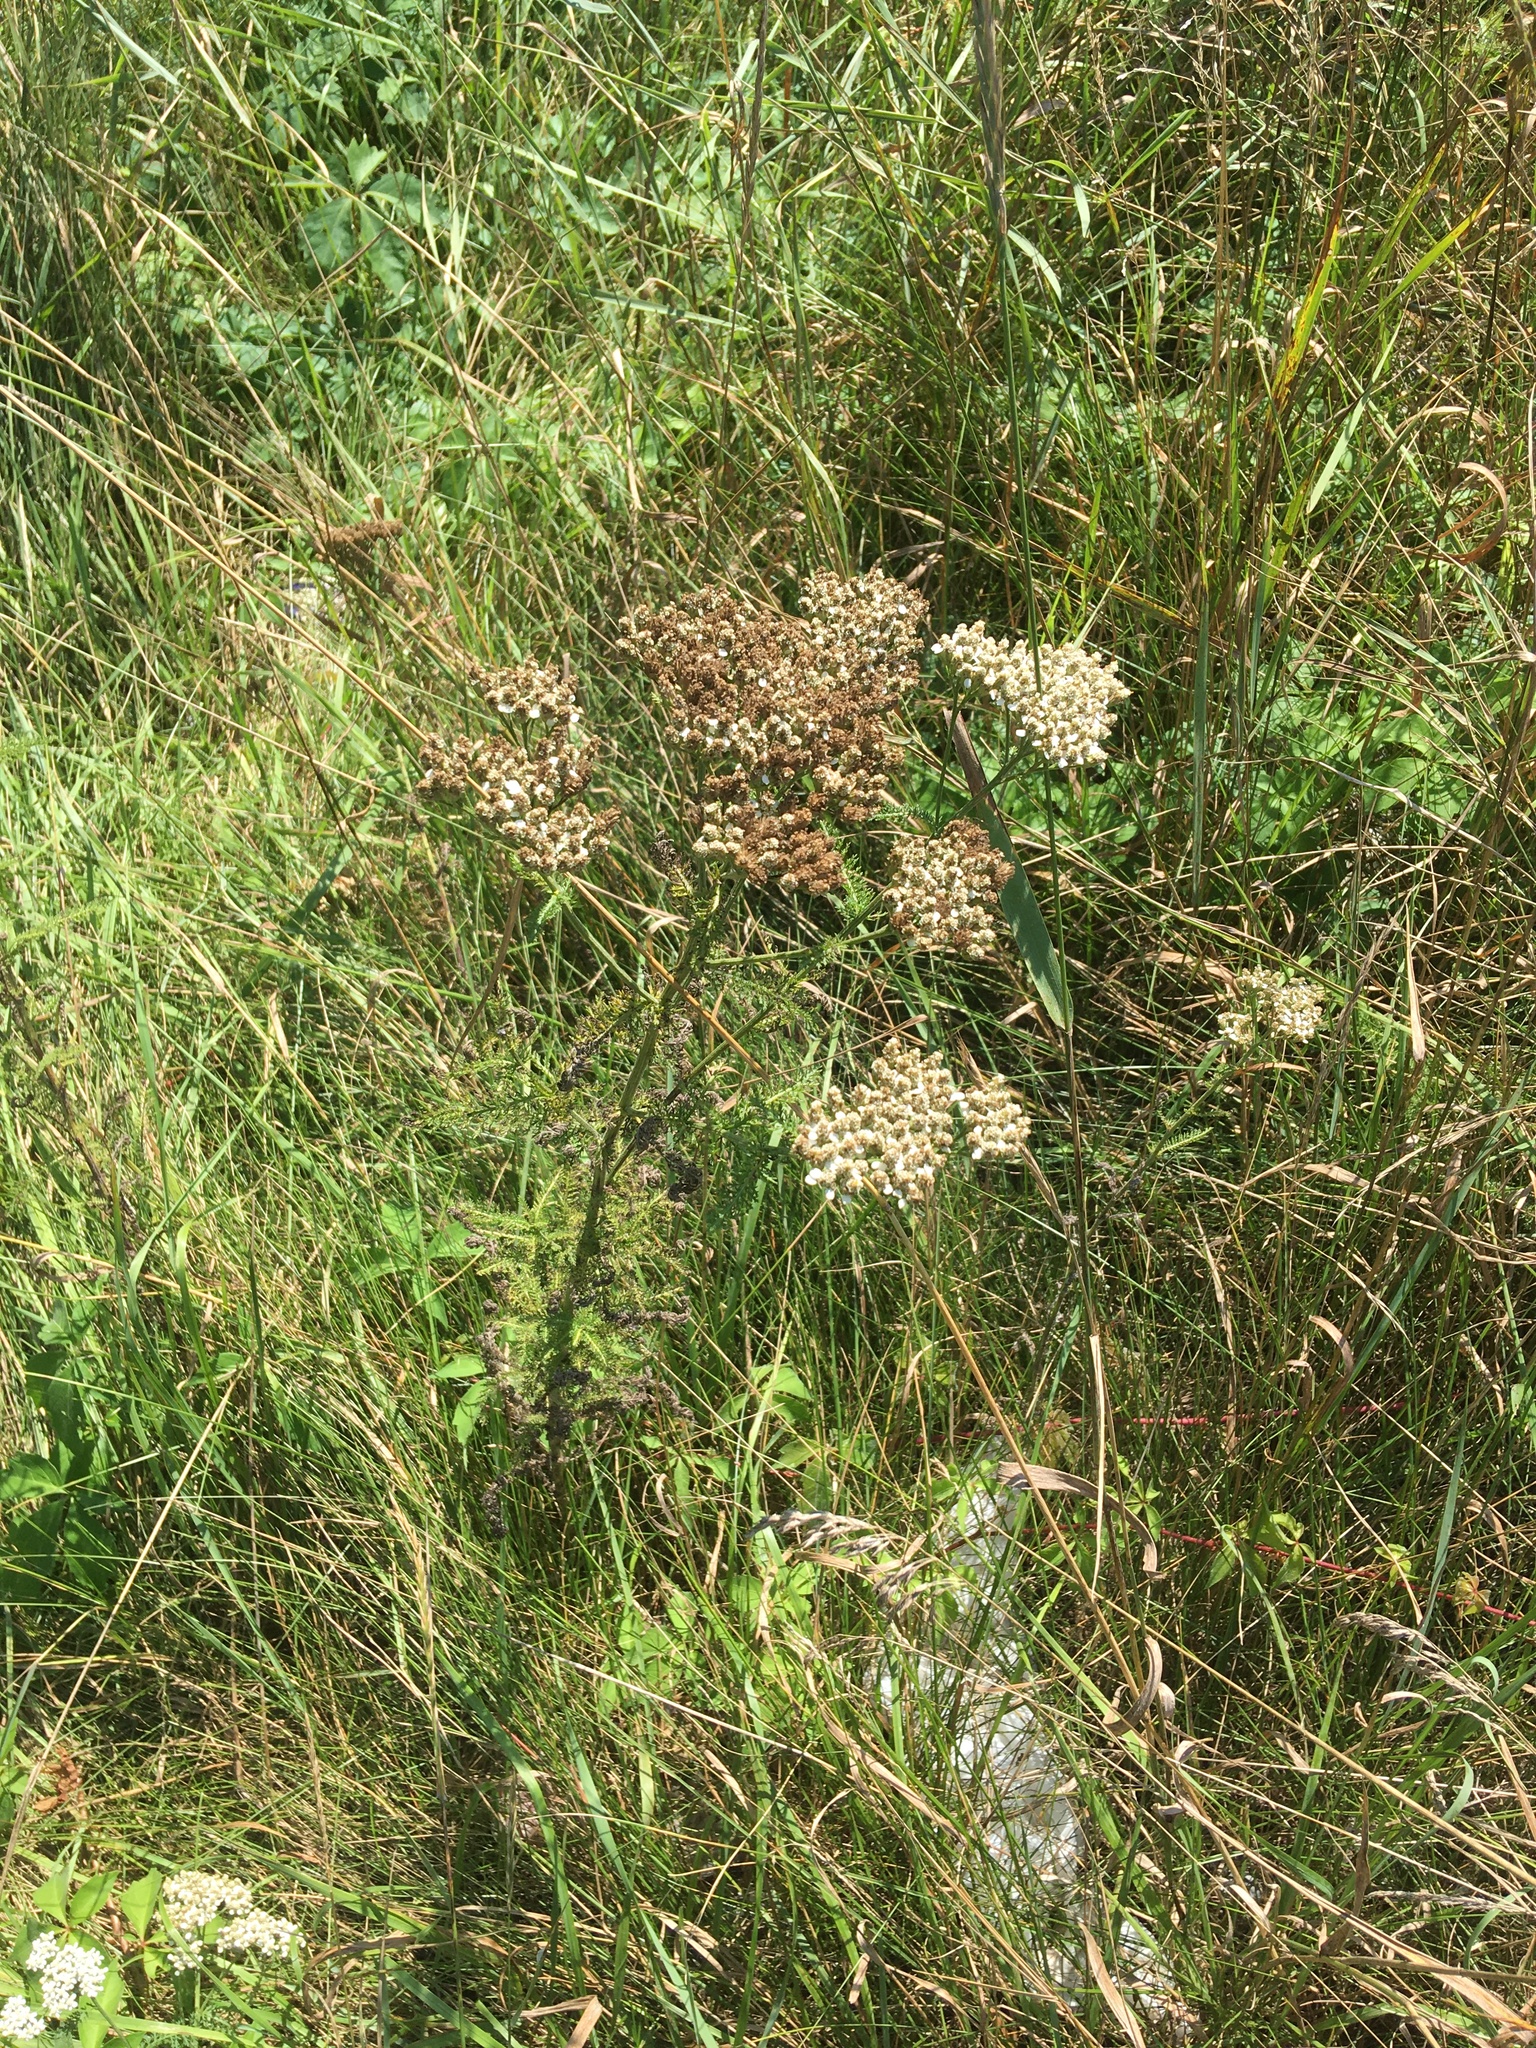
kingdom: Plantae
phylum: Tracheophyta
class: Magnoliopsida
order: Asterales
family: Asteraceae
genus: Achillea
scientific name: Achillea millefolium
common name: Yarrow
